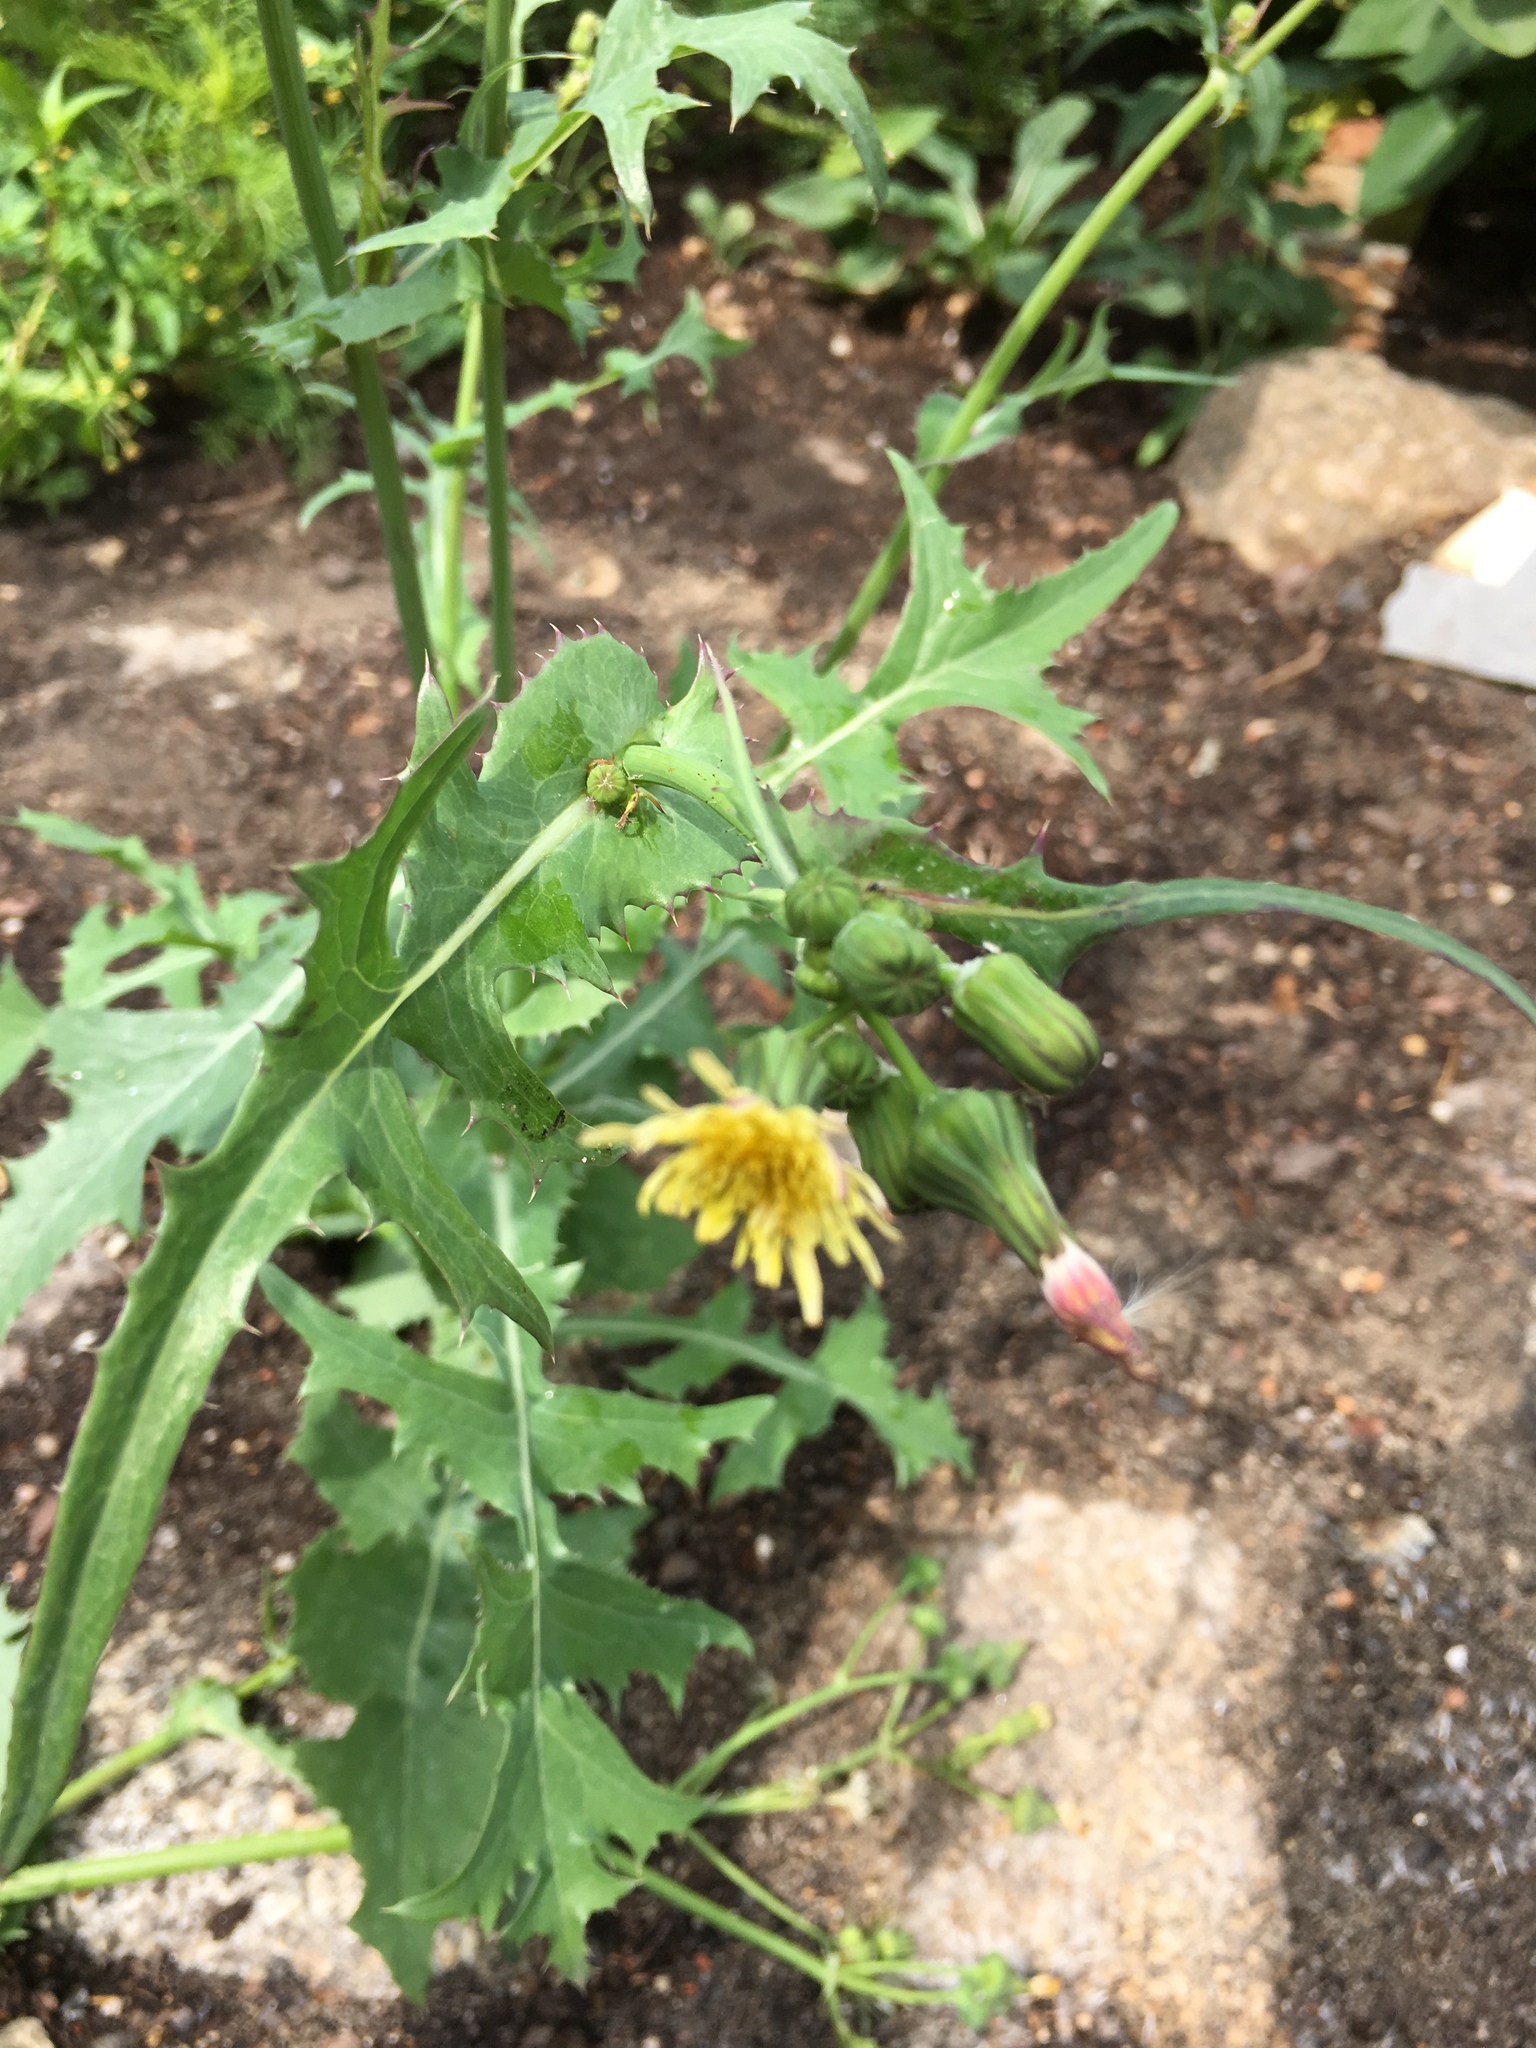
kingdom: Plantae
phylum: Tracheophyta
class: Magnoliopsida
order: Asterales
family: Asteraceae
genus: Sonchus
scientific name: Sonchus oleraceus
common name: Common sowthistle
